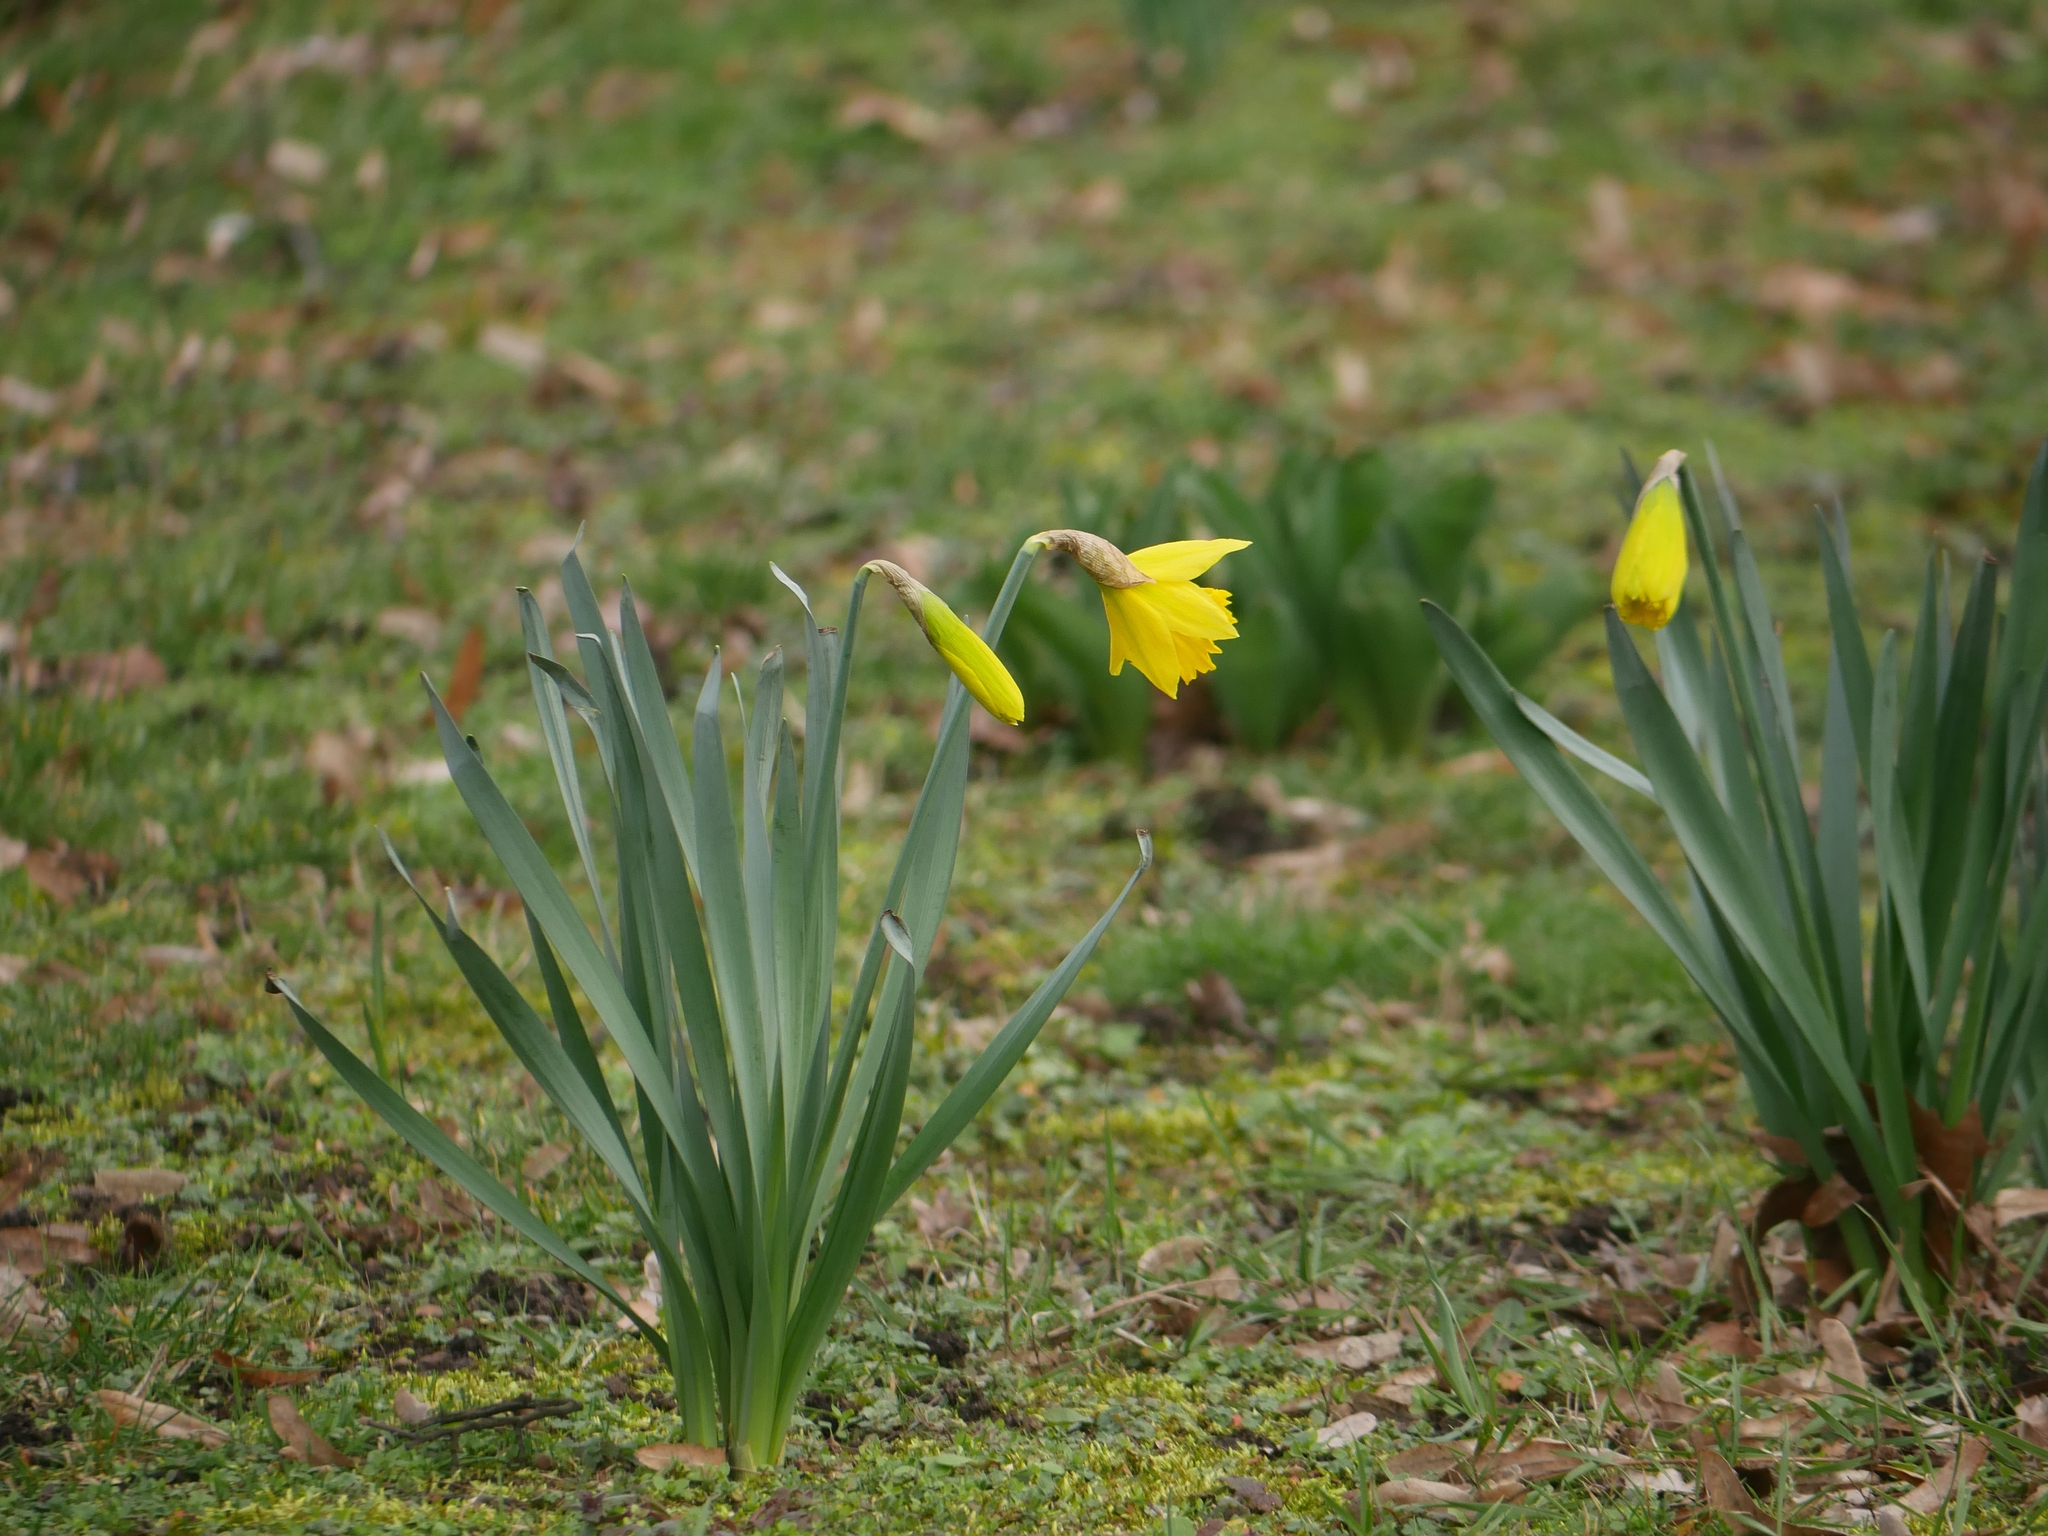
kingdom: Plantae
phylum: Tracheophyta
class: Liliopsida
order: Asparagales
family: Amaryllidaceae
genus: Narcissus
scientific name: Narcissus pseudonarcissus
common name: Daffodil
